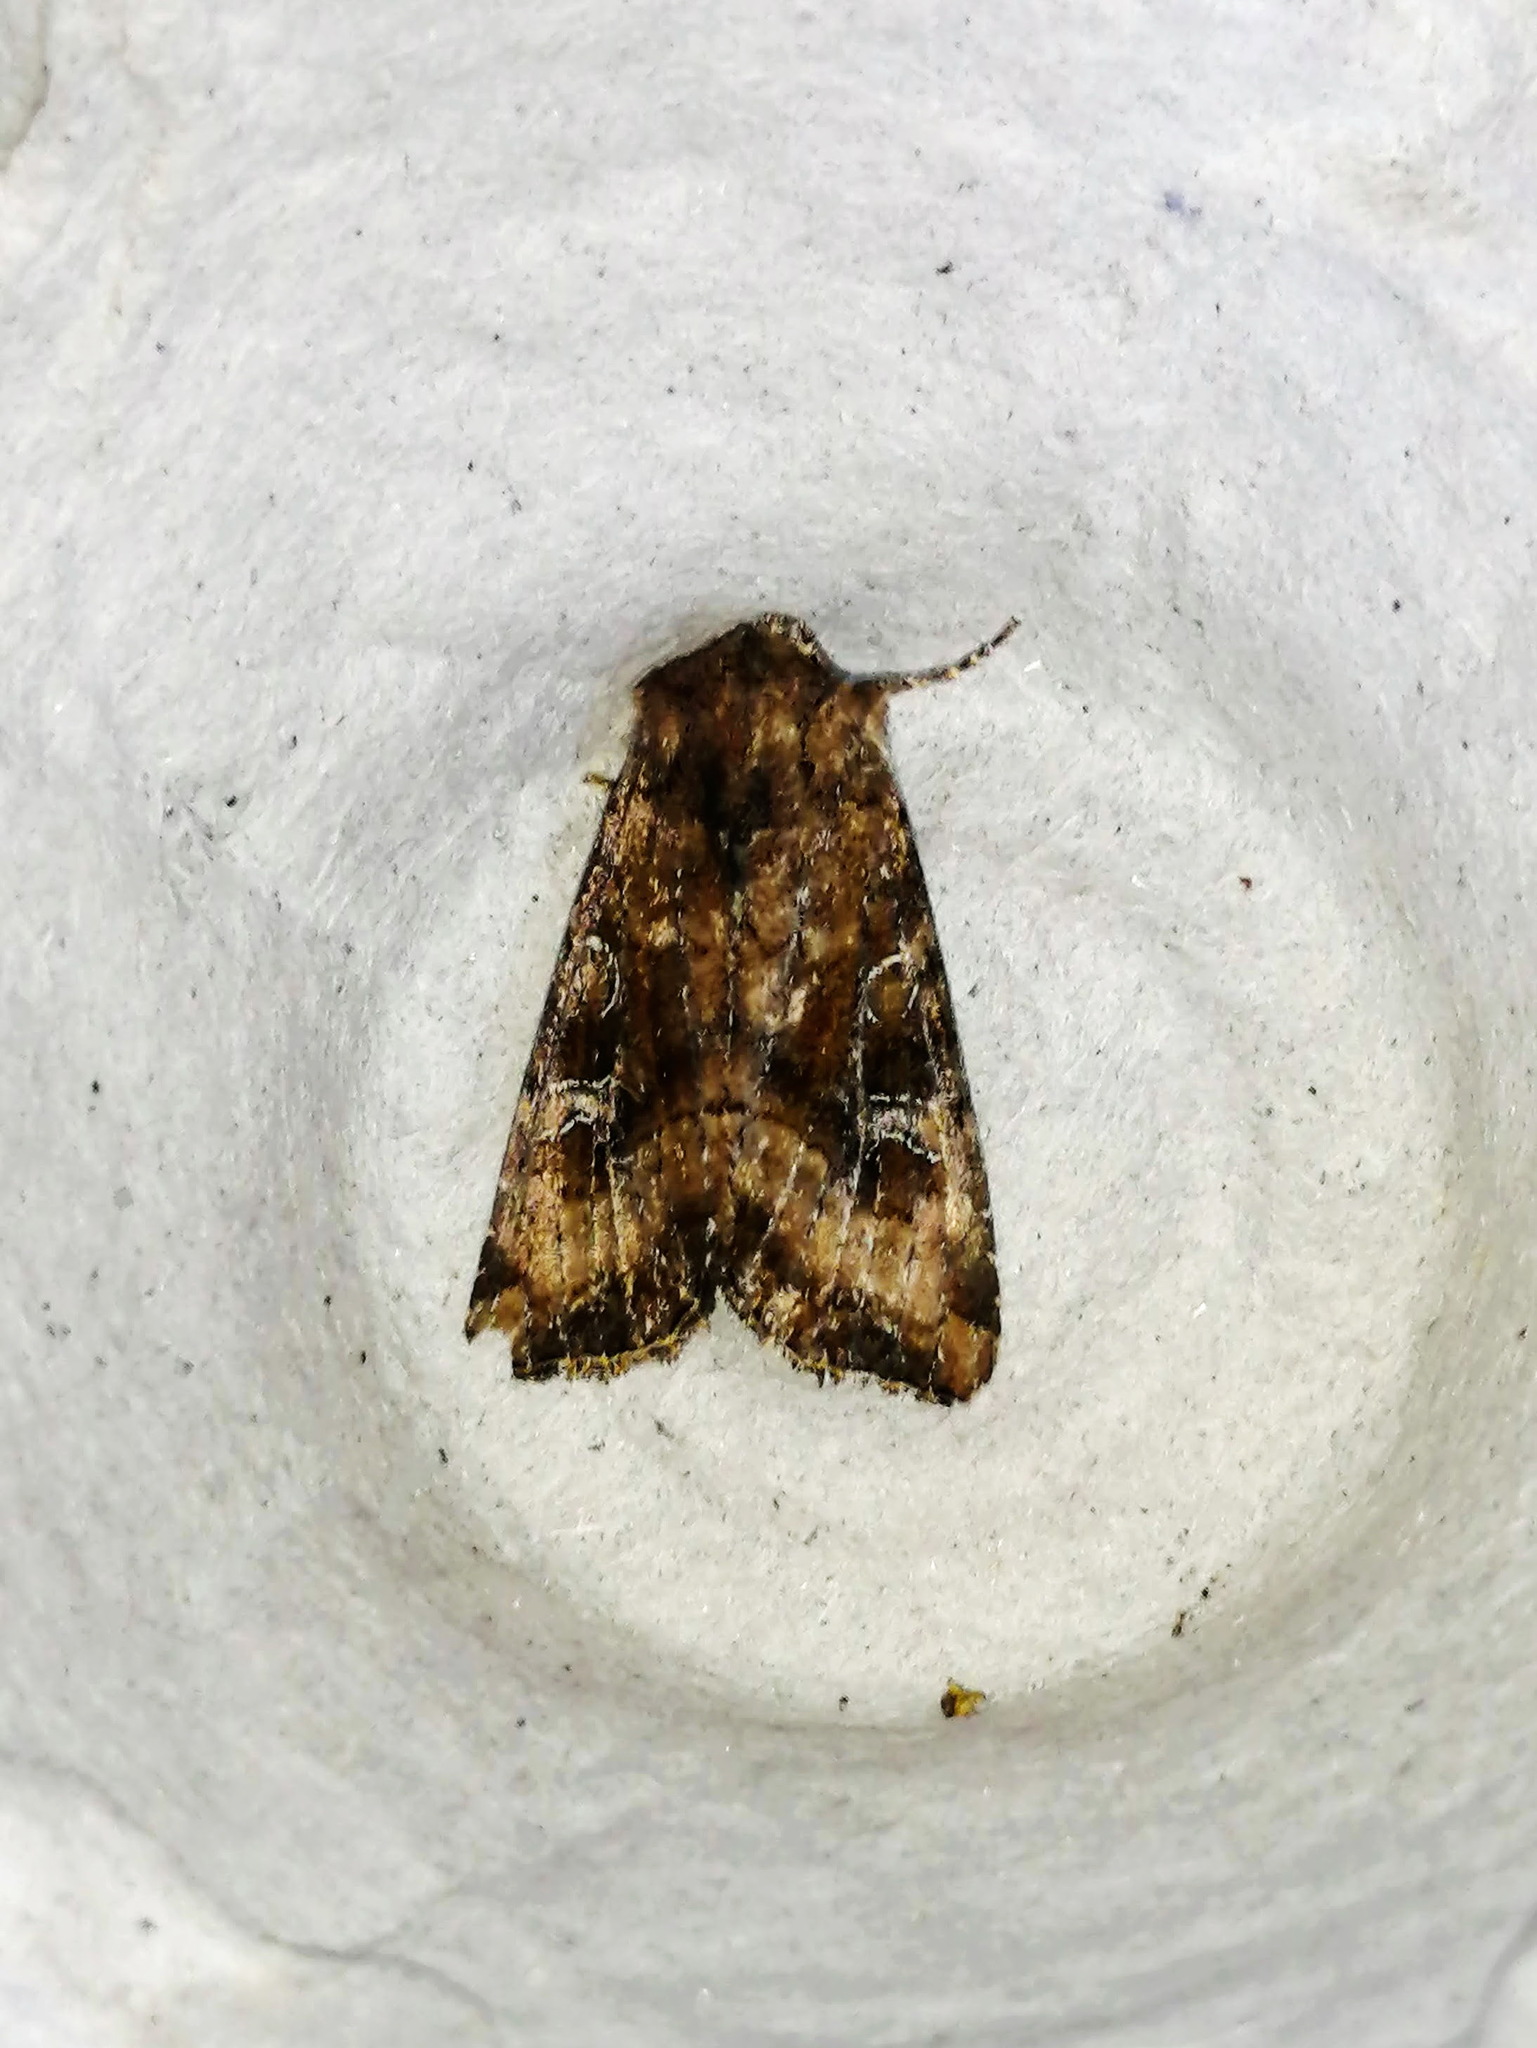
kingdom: Animalia
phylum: Arthropoda
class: Insecta
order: Lepidoptera
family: Noctuidae
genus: Loscopia
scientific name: Loscopia velata
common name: Veiled ear moth
